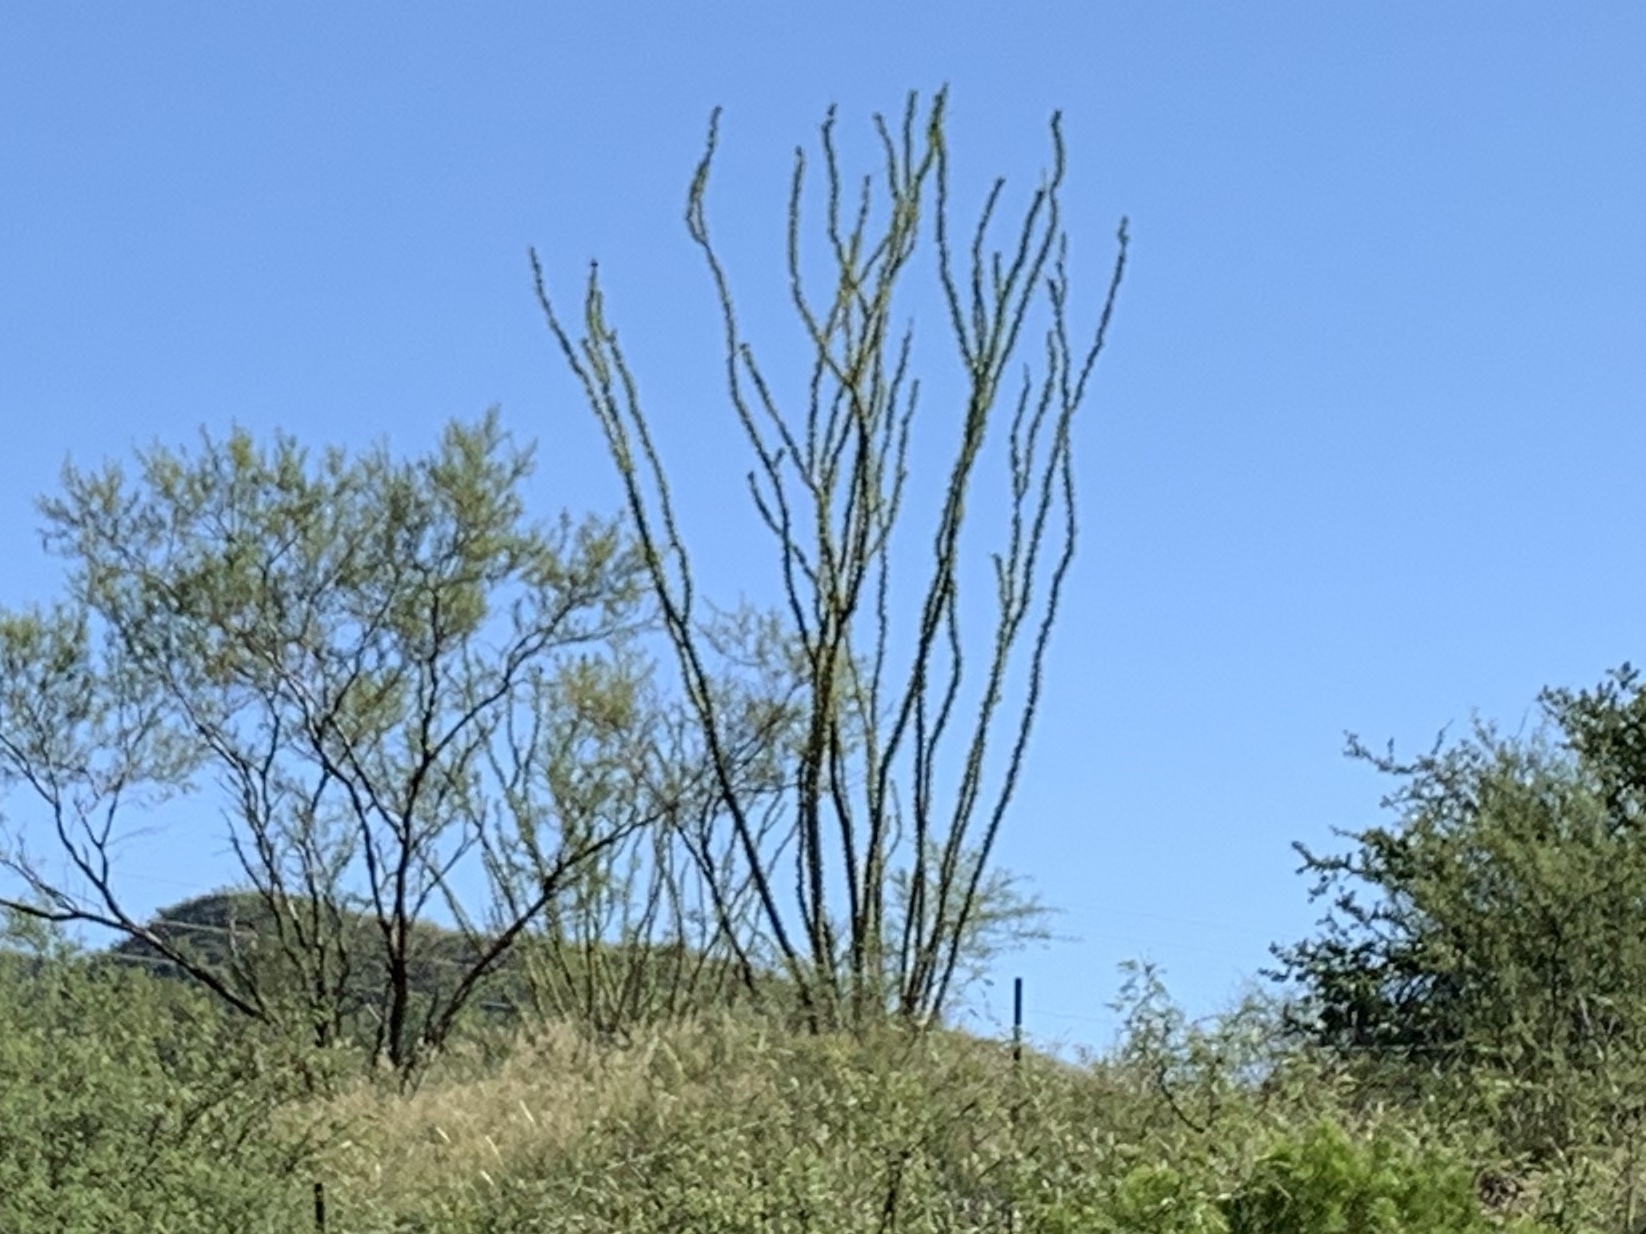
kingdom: Plantae
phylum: Tracheophyta
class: Magnoliopsida
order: Ericales
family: Fouquieriaceae
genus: Fouquieria
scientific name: Fouquieria splendens
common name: Vine-cactus
